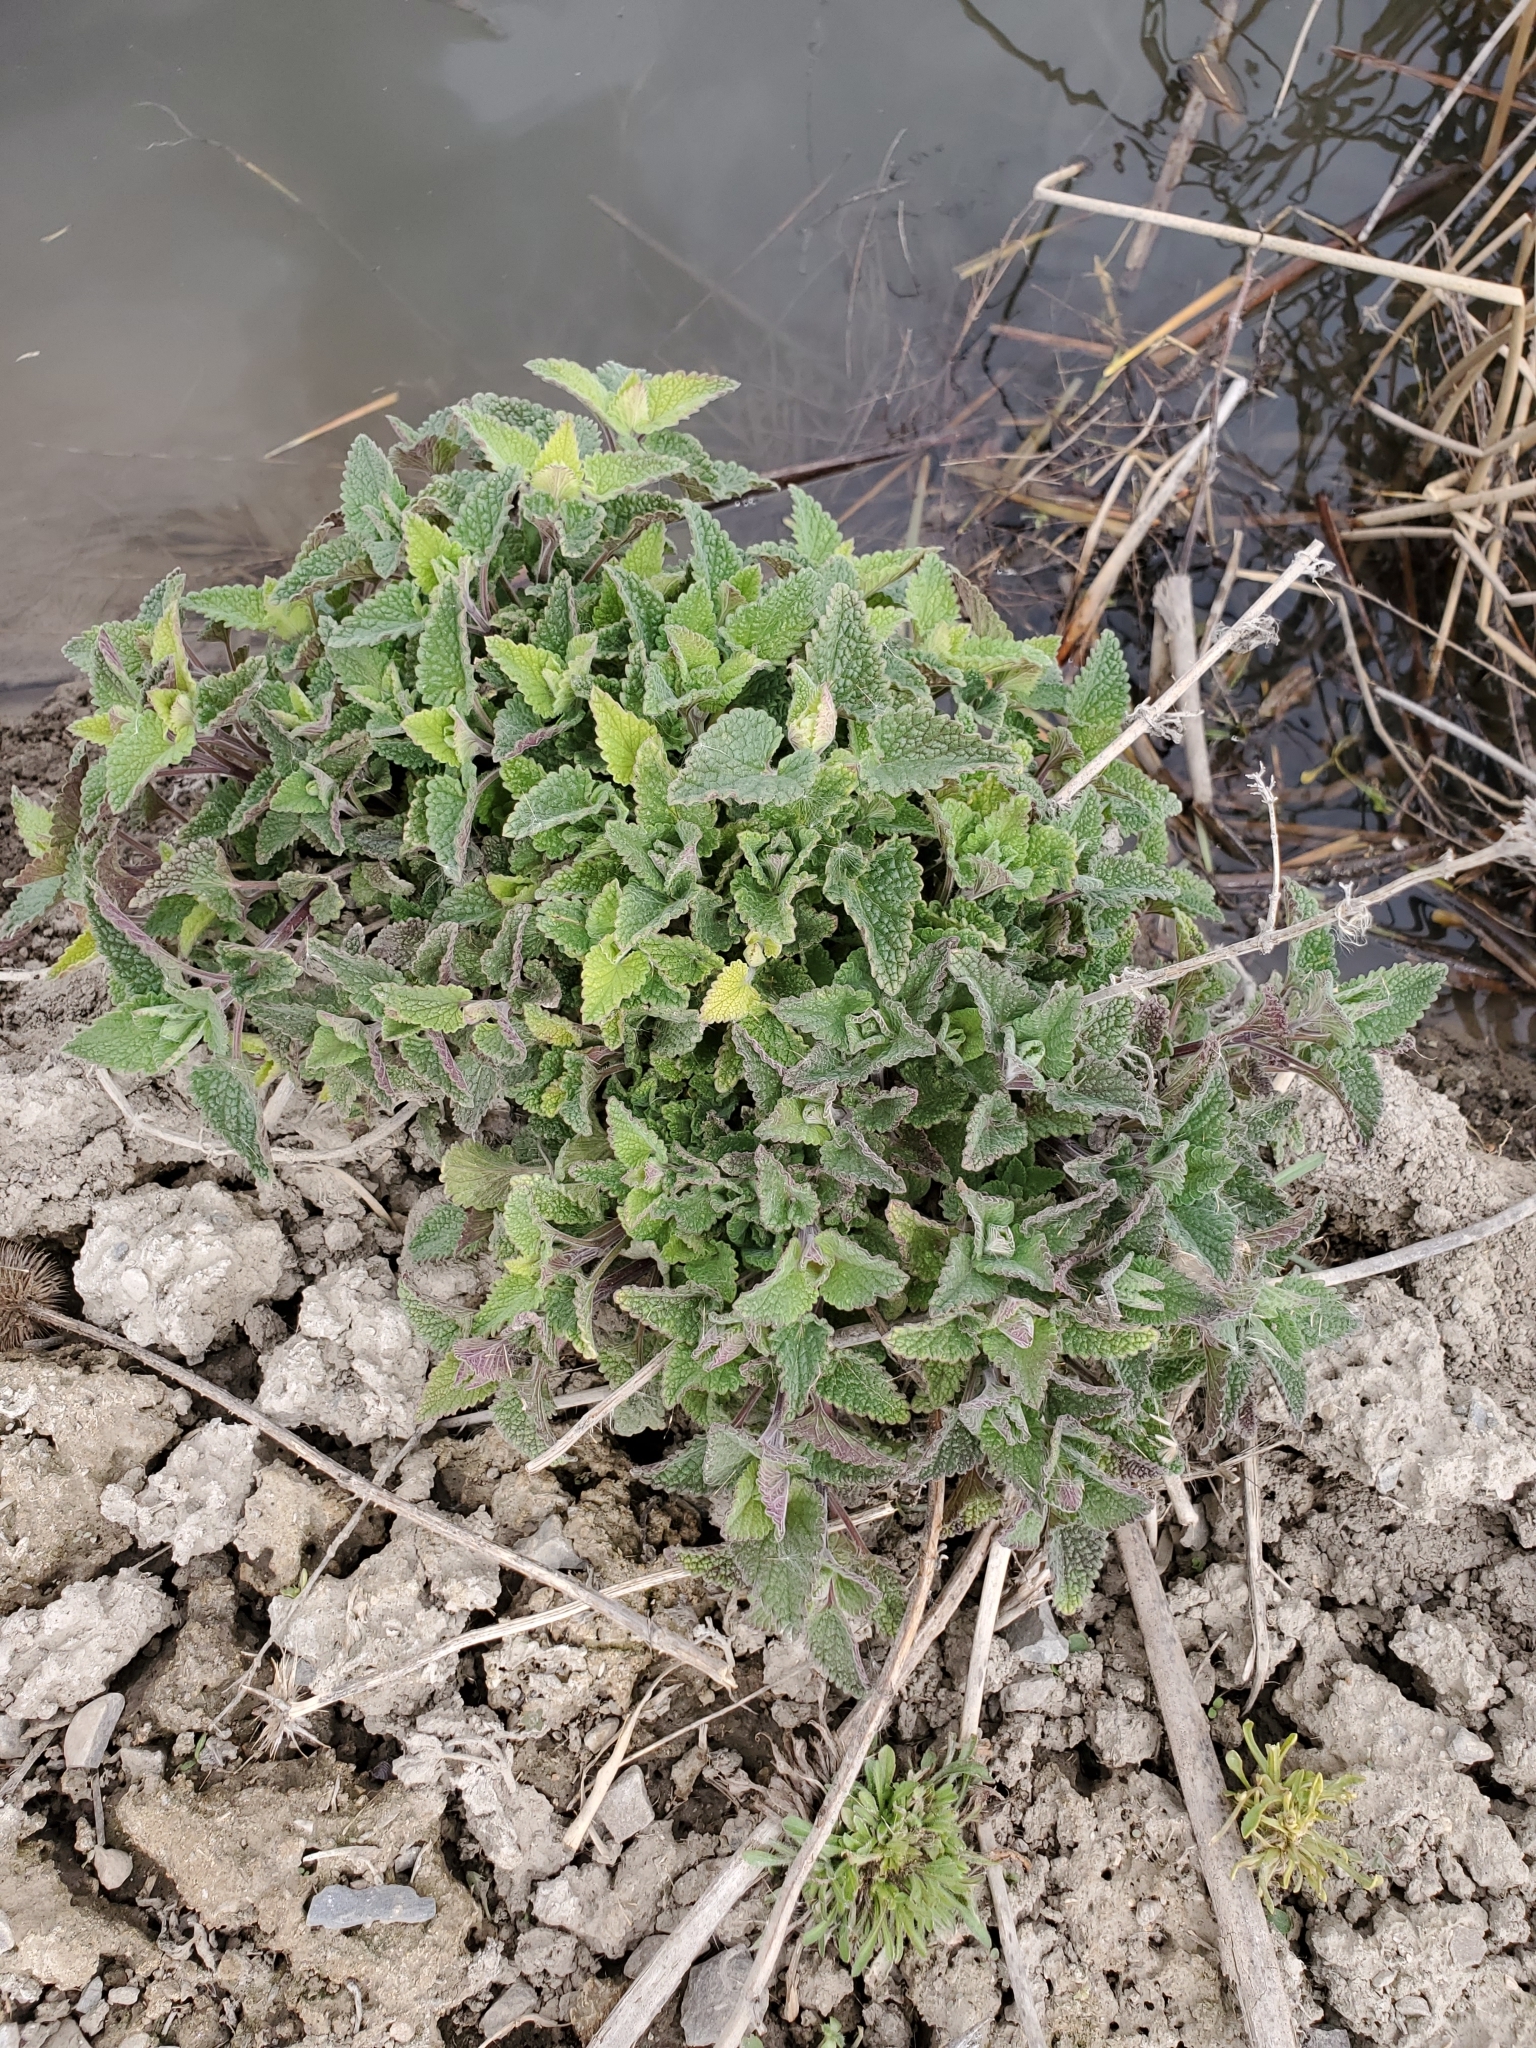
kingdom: Plantae
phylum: Tracheophyta
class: Magnoliopsida
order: Lamiales
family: Lamiaceae
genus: Nepeta
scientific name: Nepeta cataria
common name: Catnip
